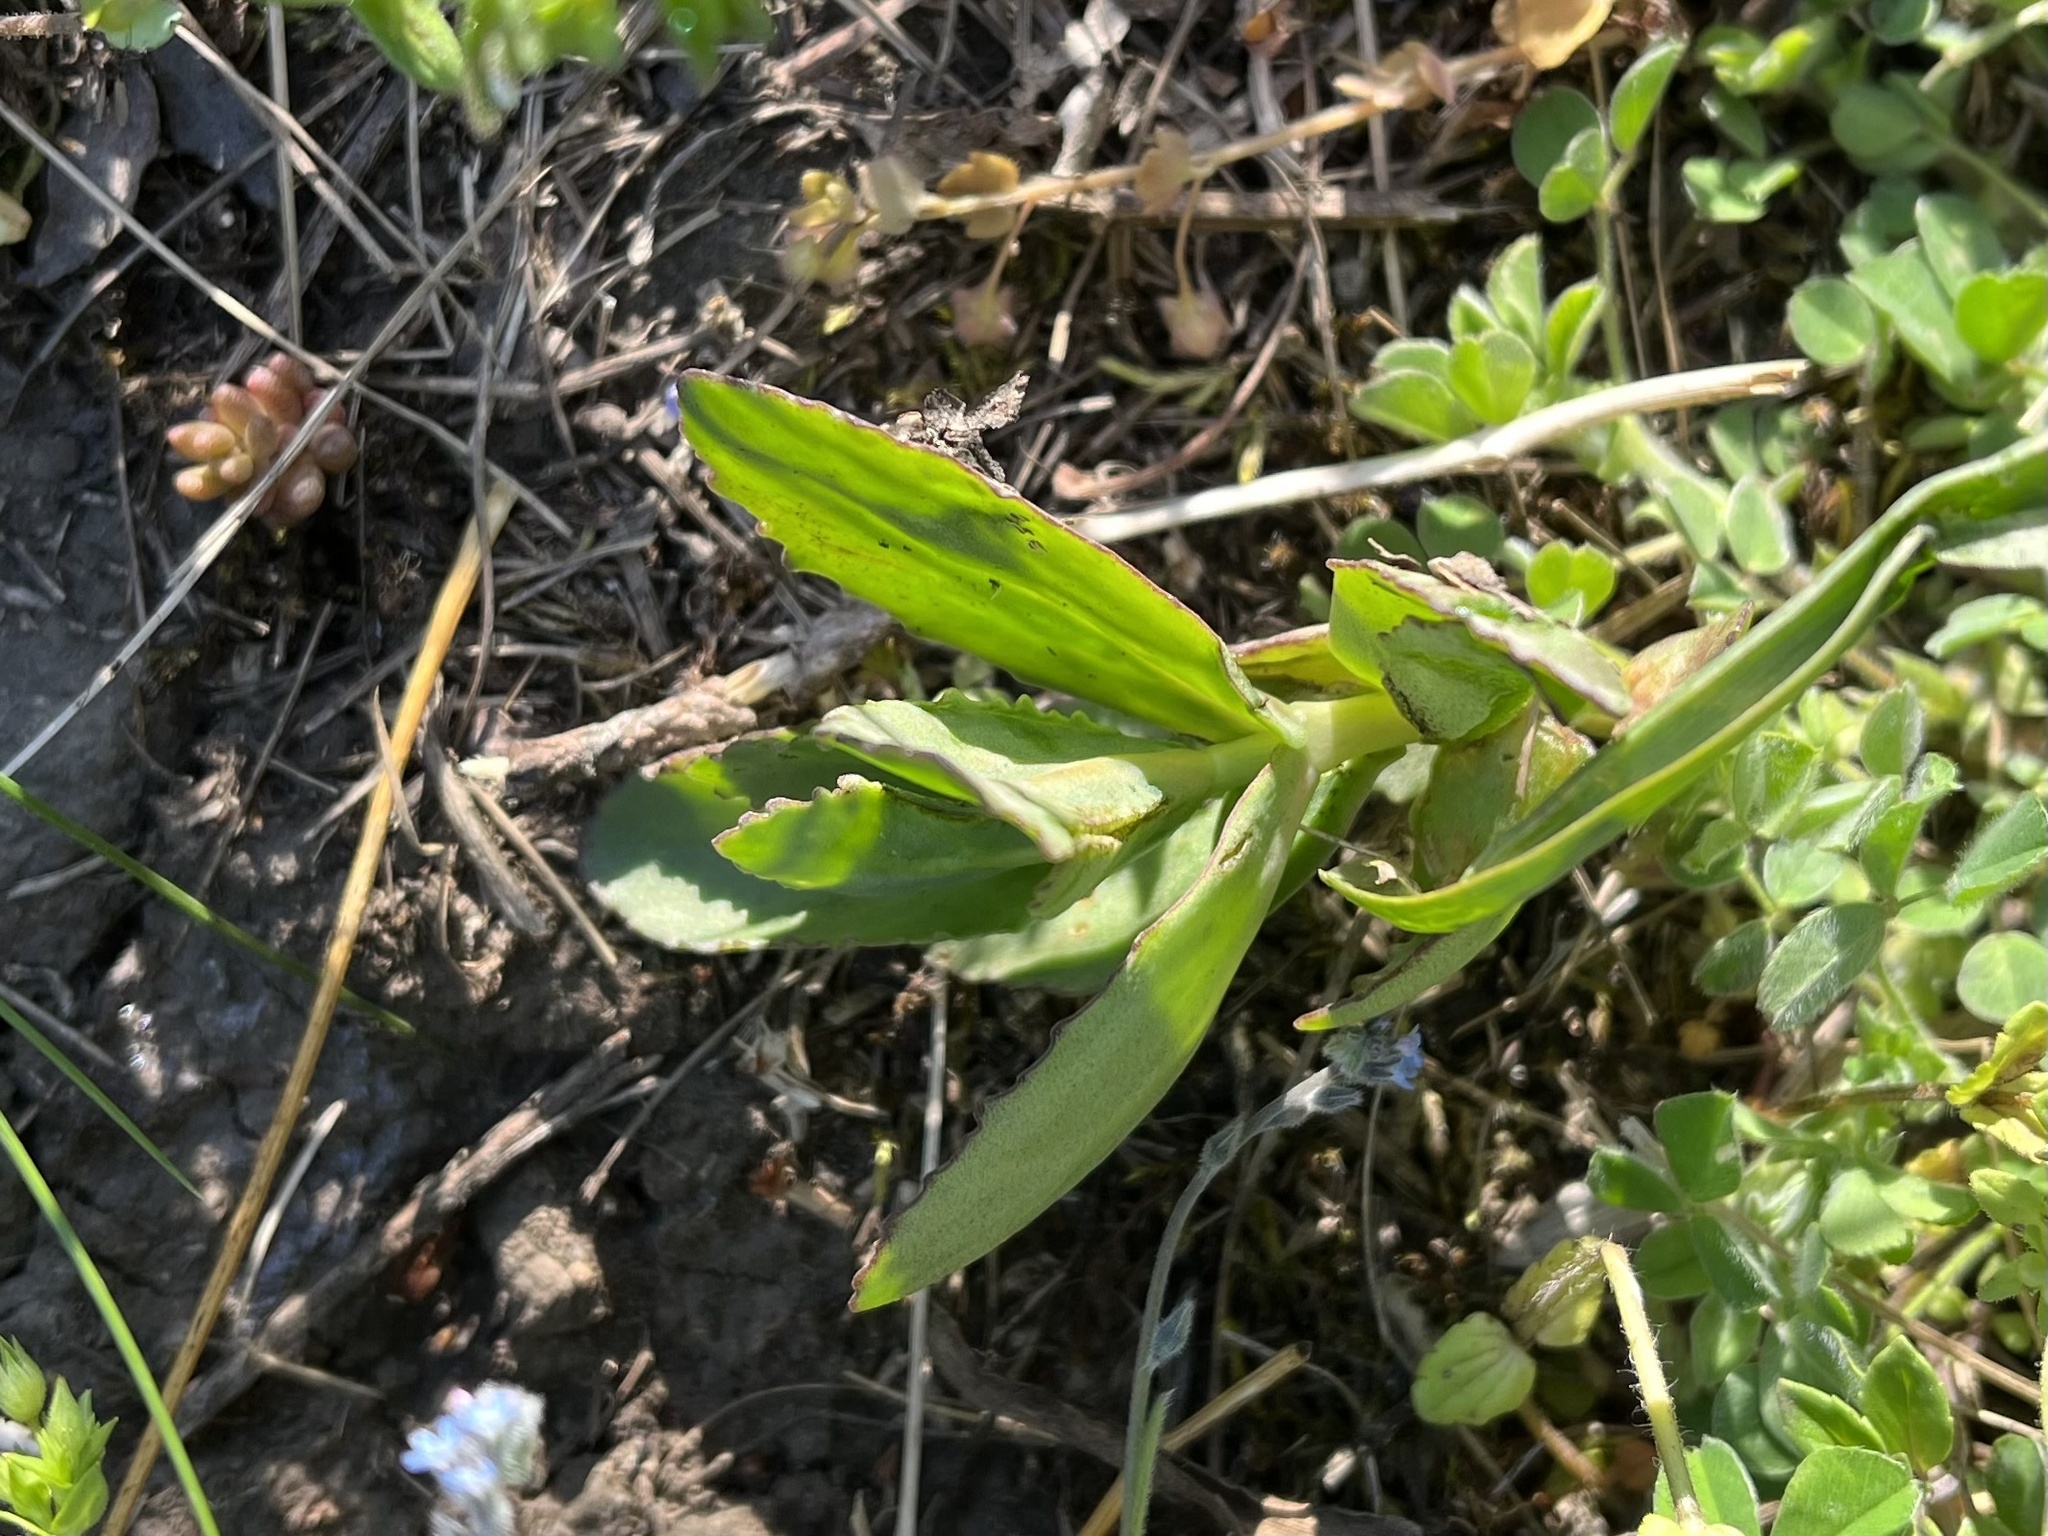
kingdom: Plantae
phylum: Tracheophyta
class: Magnoliopsida
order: Saxifragales
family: Crassulaceae
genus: Hylotelephium
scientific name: Hylotelephium maximum
